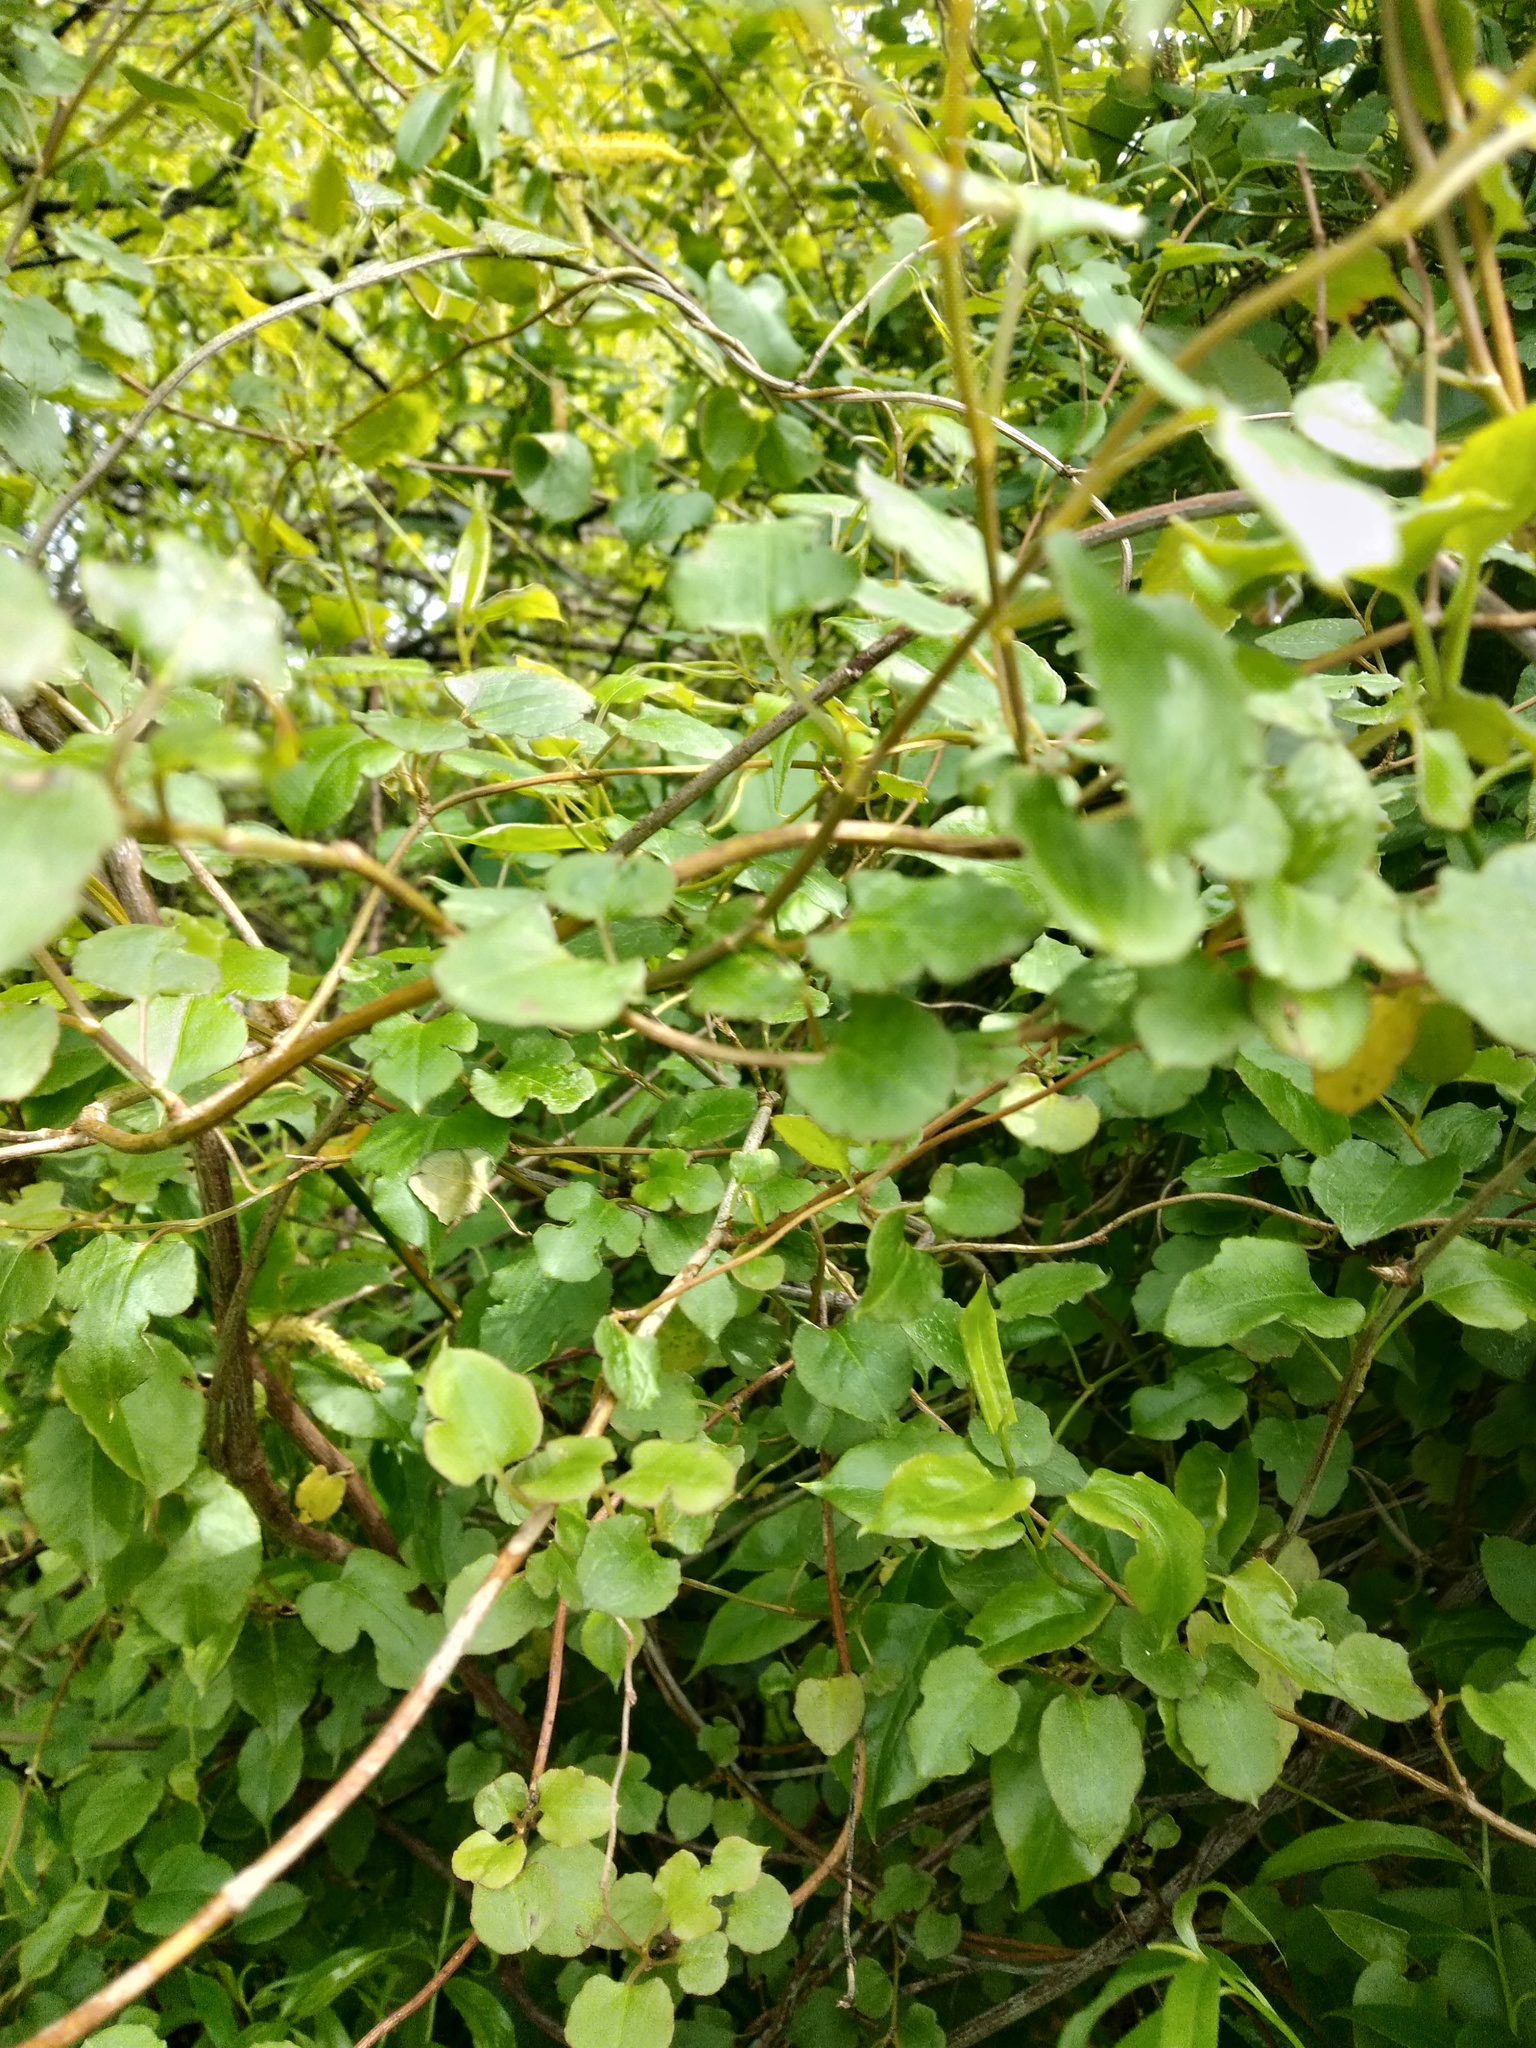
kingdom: Plantae
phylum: Tracheophyta
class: Magnoliopsida
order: Caryophyllales
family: Polygonaceae
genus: Muehlenbeckia
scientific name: Muehlenbeckia australis
